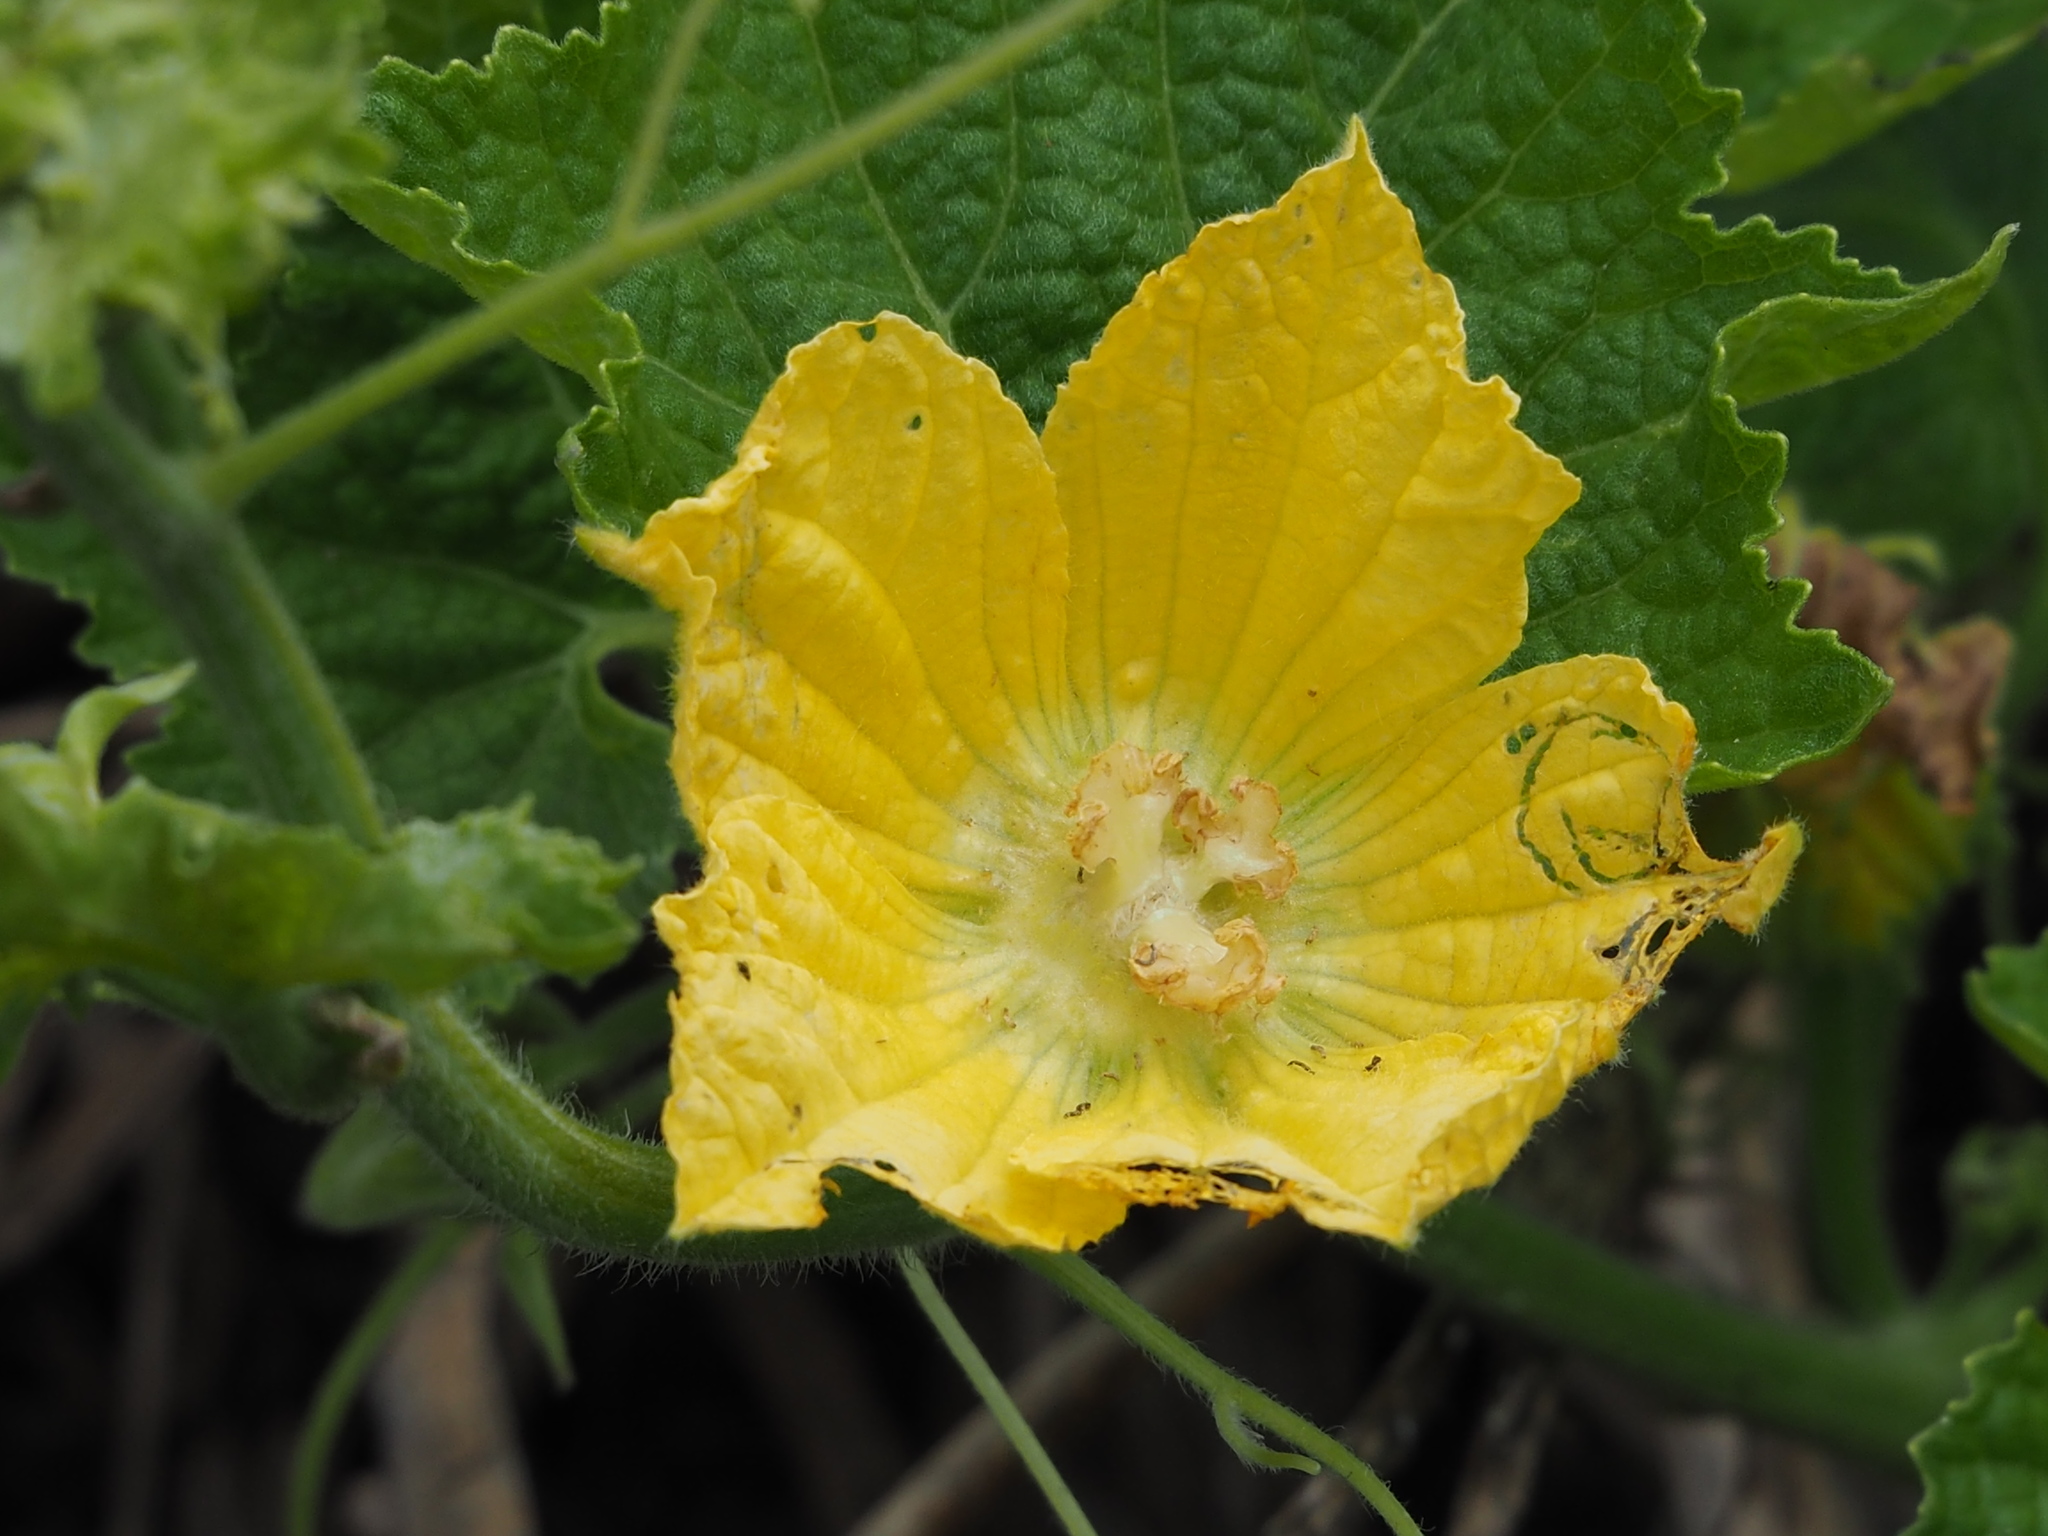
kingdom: Plantae
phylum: Tracheophyta
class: Magnoliopsida
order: Cucurbitales
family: Cucurbitaceae
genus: Cucurbita
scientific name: Cucurbita moschata
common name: Squash / pumpkin
